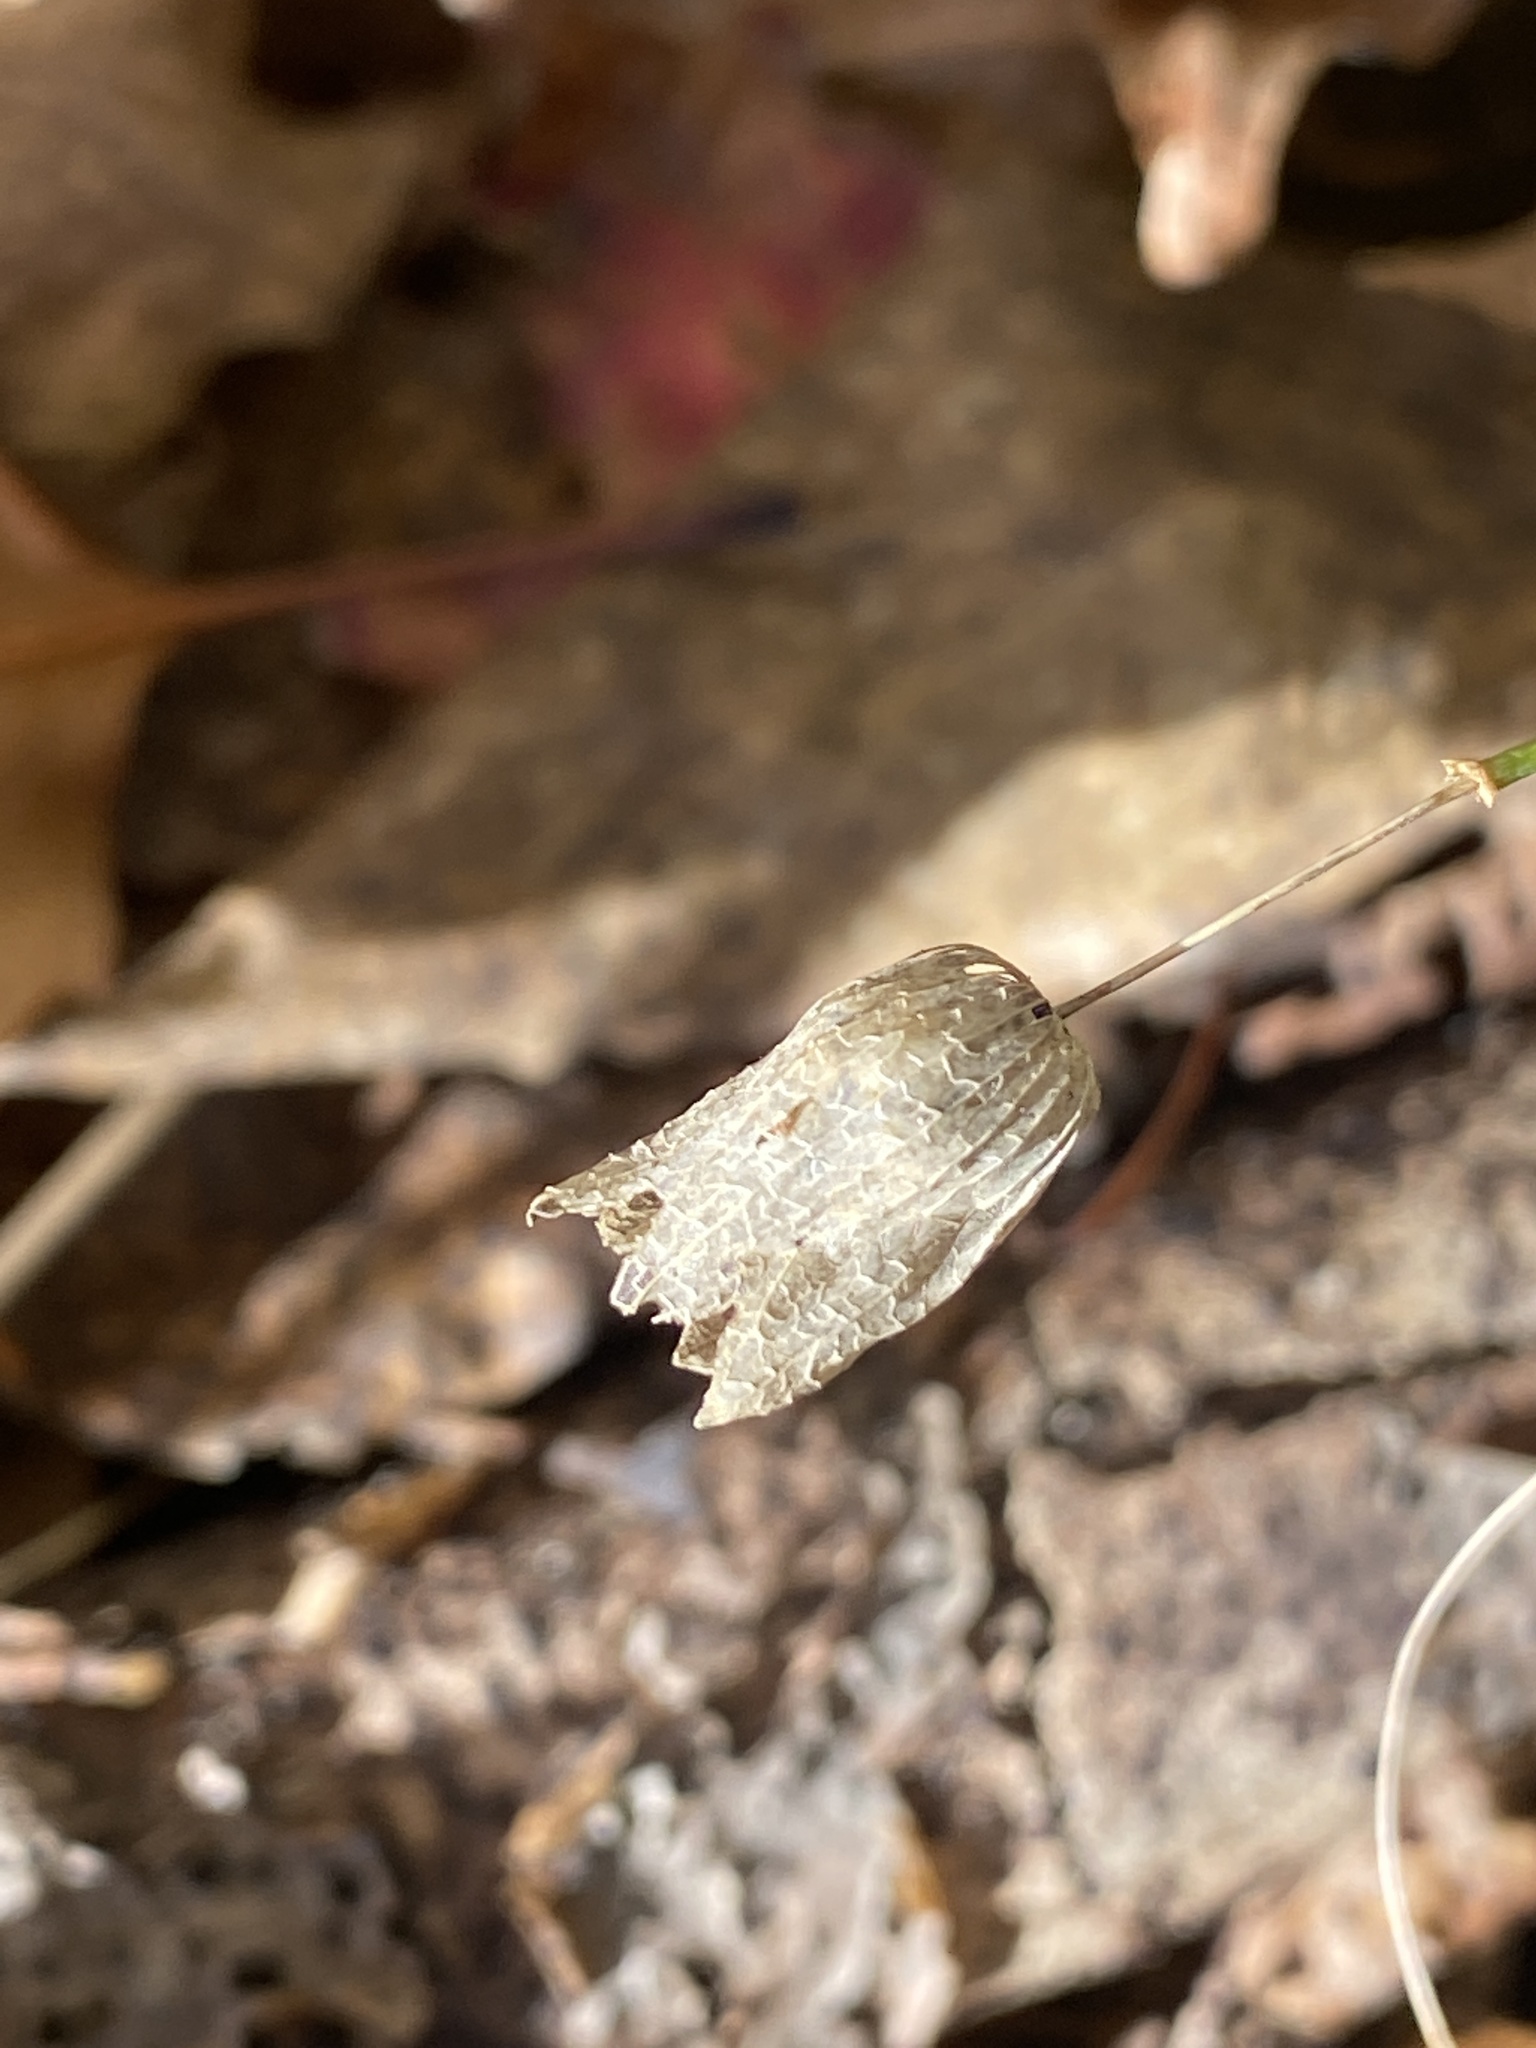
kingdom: Plantae
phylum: Tracheophyta
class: Magnoliopsida
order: Caryophyllales
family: Caryophyllaceae
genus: Silene
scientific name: Silene vulgaris
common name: Bladder campion
